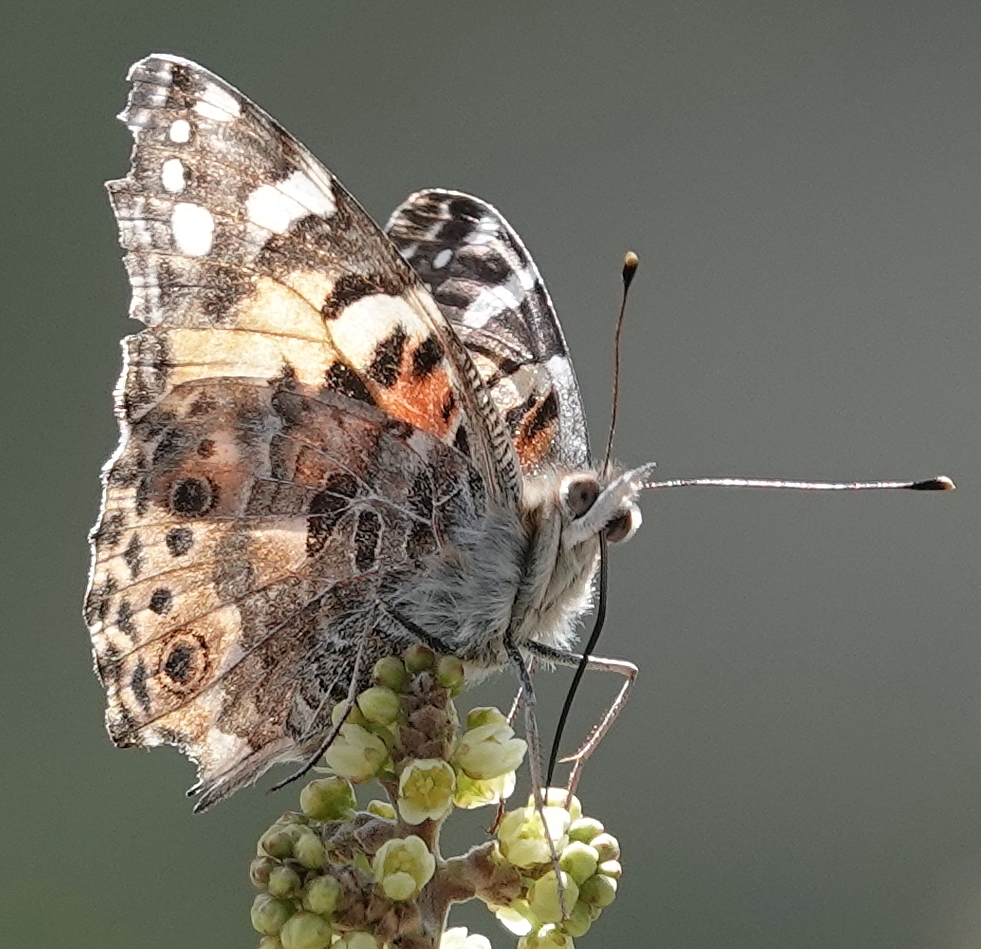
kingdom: Animalia
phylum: Arthropoda
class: Insecta
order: Lepidoptera
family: Nymphalidae
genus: Vanessa
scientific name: Vanessa cardui
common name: Painted lady
